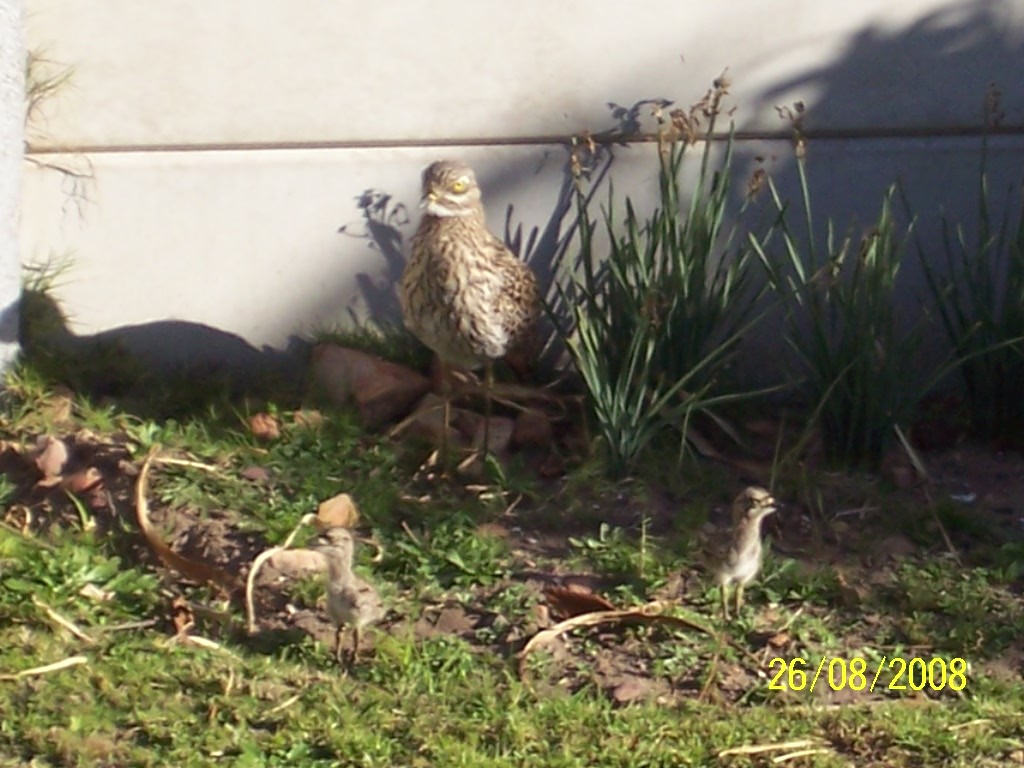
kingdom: Animalia
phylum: Chordata
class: Aves
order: Charadriiformes
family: Burhinidae
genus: Burhinus
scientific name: Burhinus capensis
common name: Spotted thick-knee
